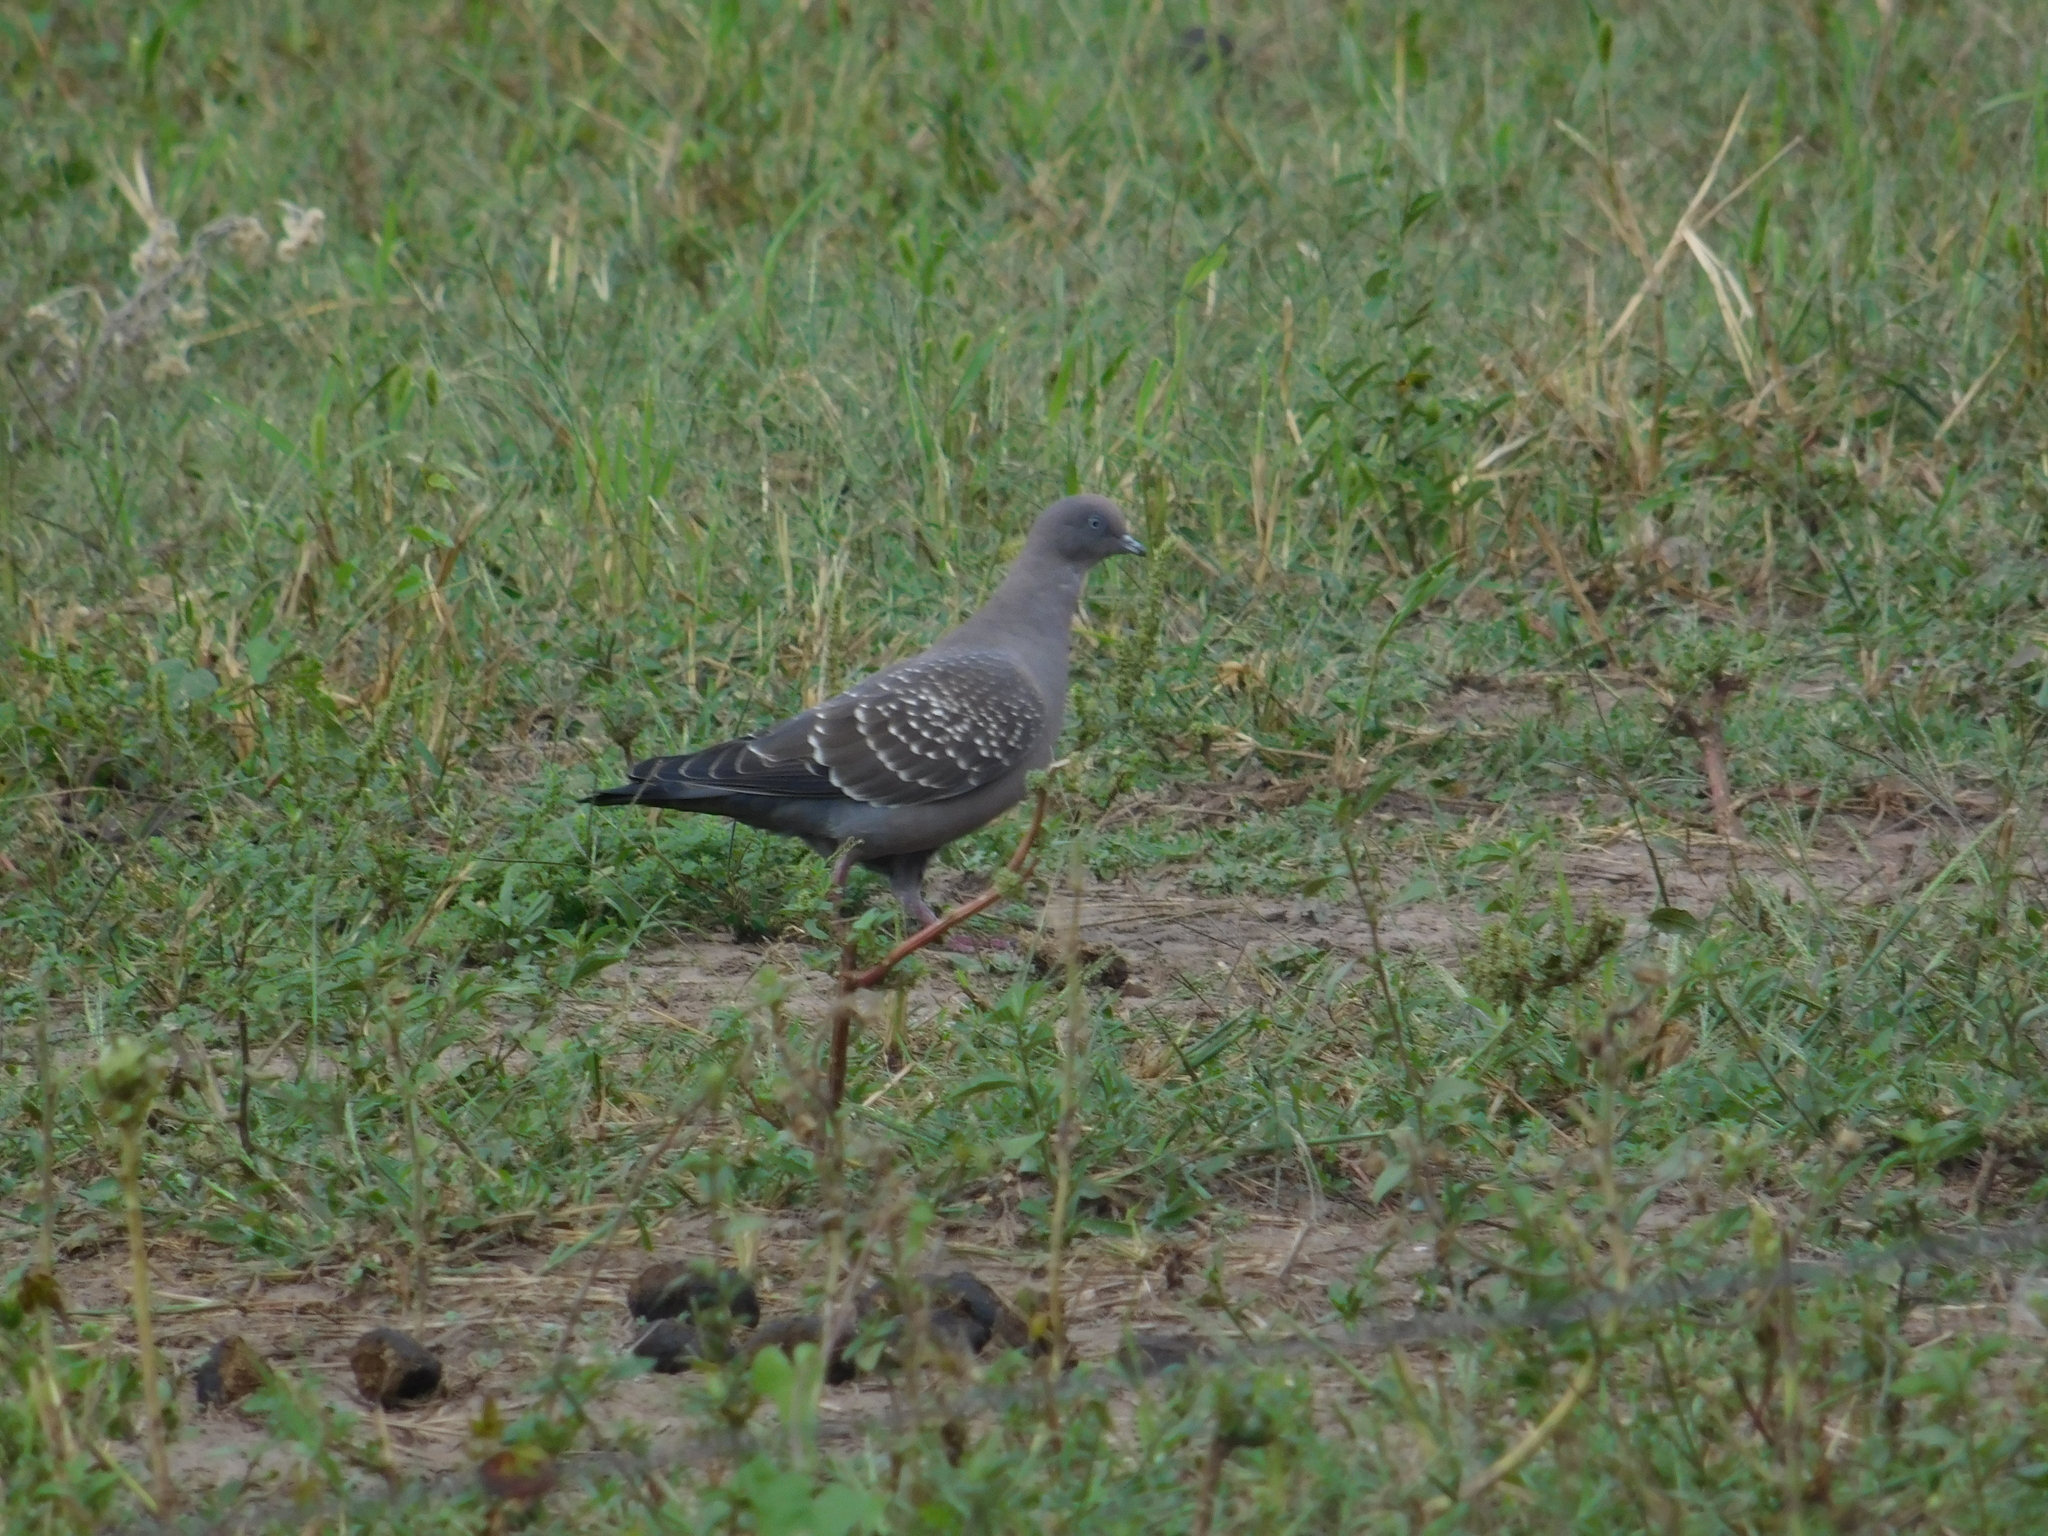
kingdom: Animalia
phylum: Chordata
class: Aves
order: Columbiformes
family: Columbidae
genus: Patagioenas
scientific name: Patagioenas maculosa
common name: Spot-winged pigeon
